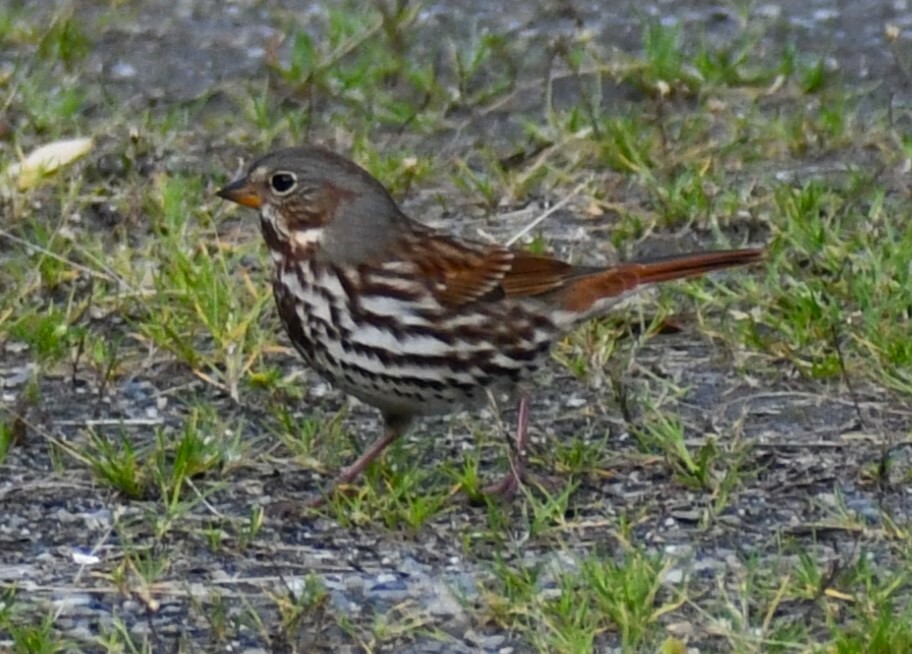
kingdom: Animalia
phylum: Chordata
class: Aves
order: Passeriformes
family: Passerellidae
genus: Passerella
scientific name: Passerella iliaca
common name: Fox sparrow
